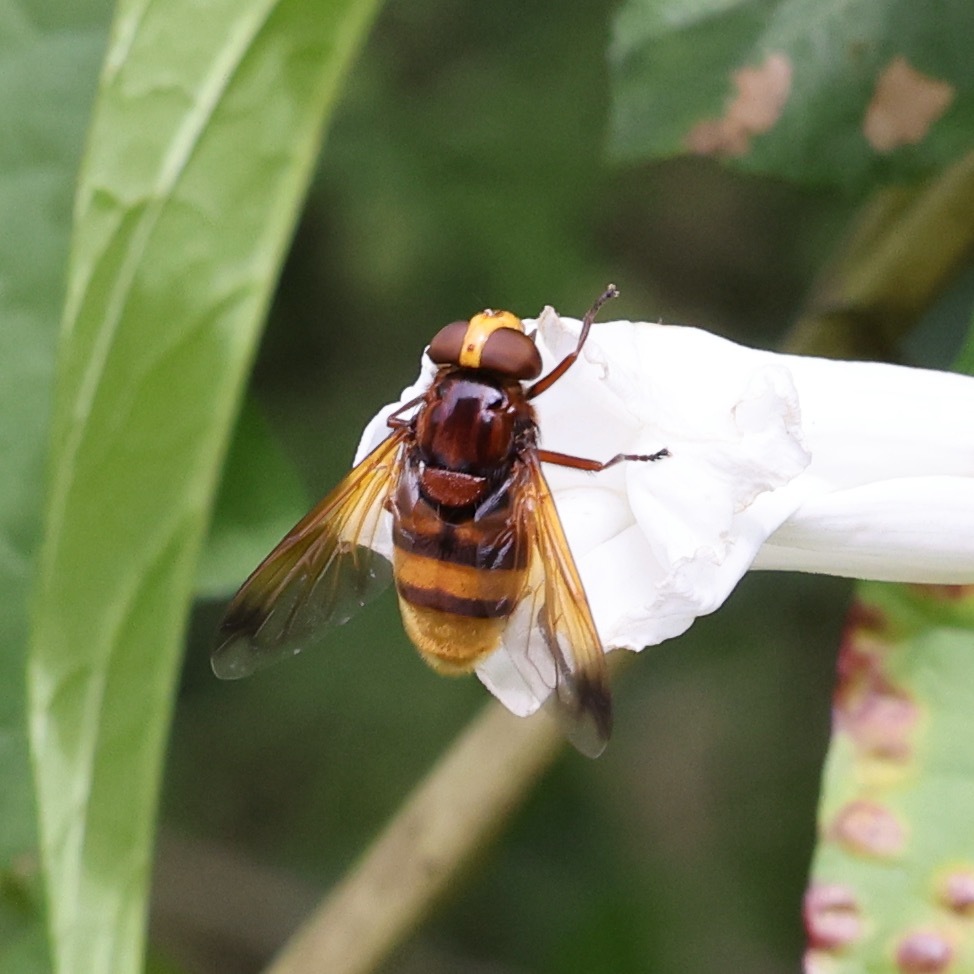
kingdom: Animalia
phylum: Arthropoda
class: Insecta
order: Diptera
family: Syrphidae
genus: Volucella
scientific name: Volucella zonaria
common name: Hornet hoverfly
